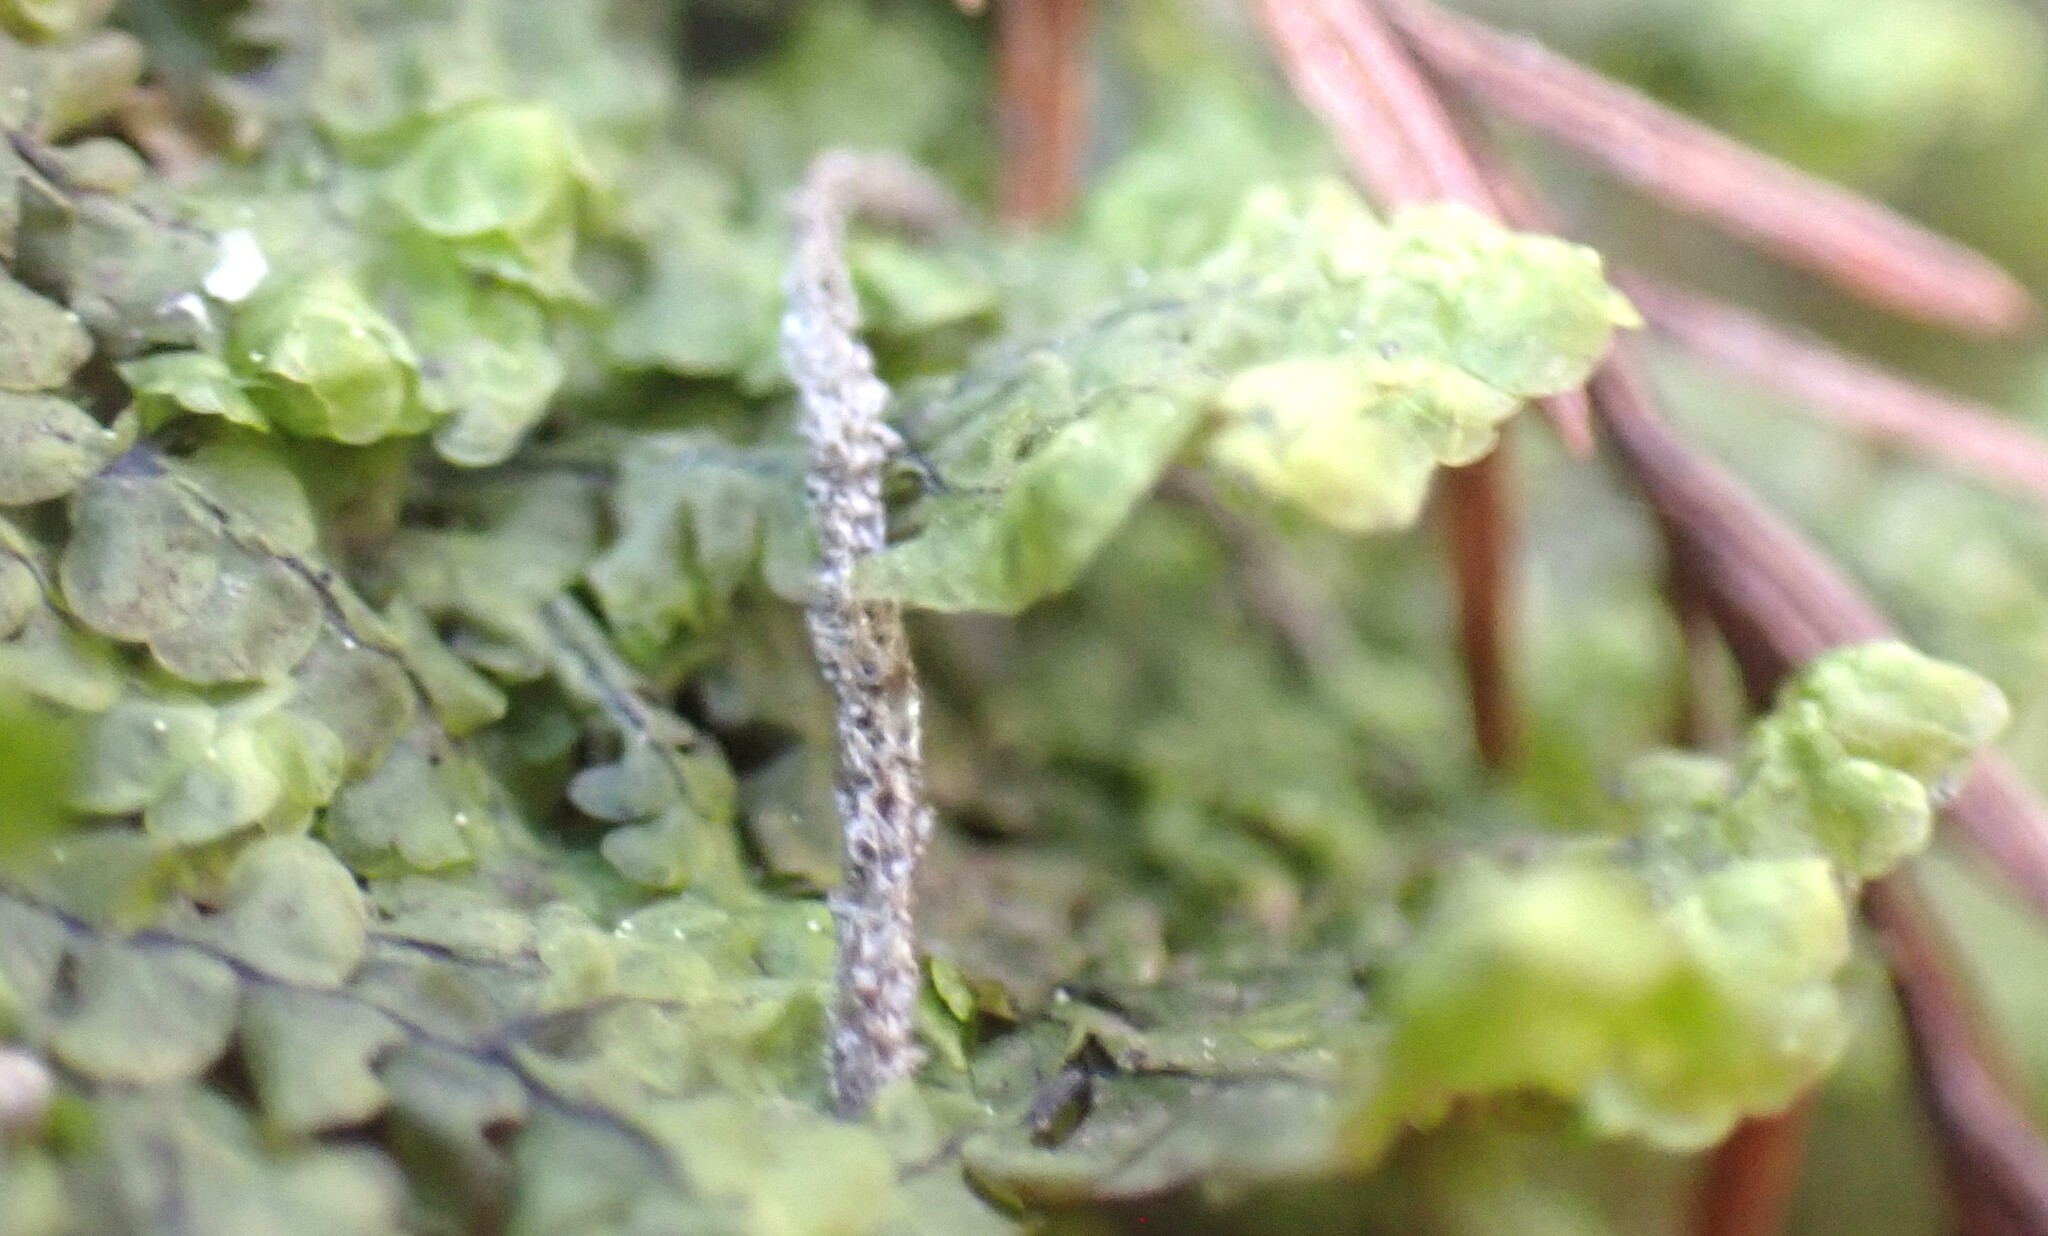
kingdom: Plantae
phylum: Marchantiophyta
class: Jungermanniopsida
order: Porellales
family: Porellaceae
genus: Porella
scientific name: Porella pinnata
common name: Pinnate scalewort
